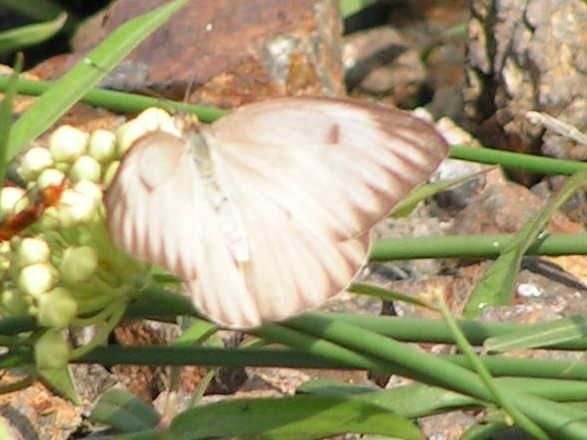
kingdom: Animalia
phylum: Arthropoda
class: Insecta
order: Lepidoptera
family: Pieridae
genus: Ascia
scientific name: Ascia monuste
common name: Great southern white
